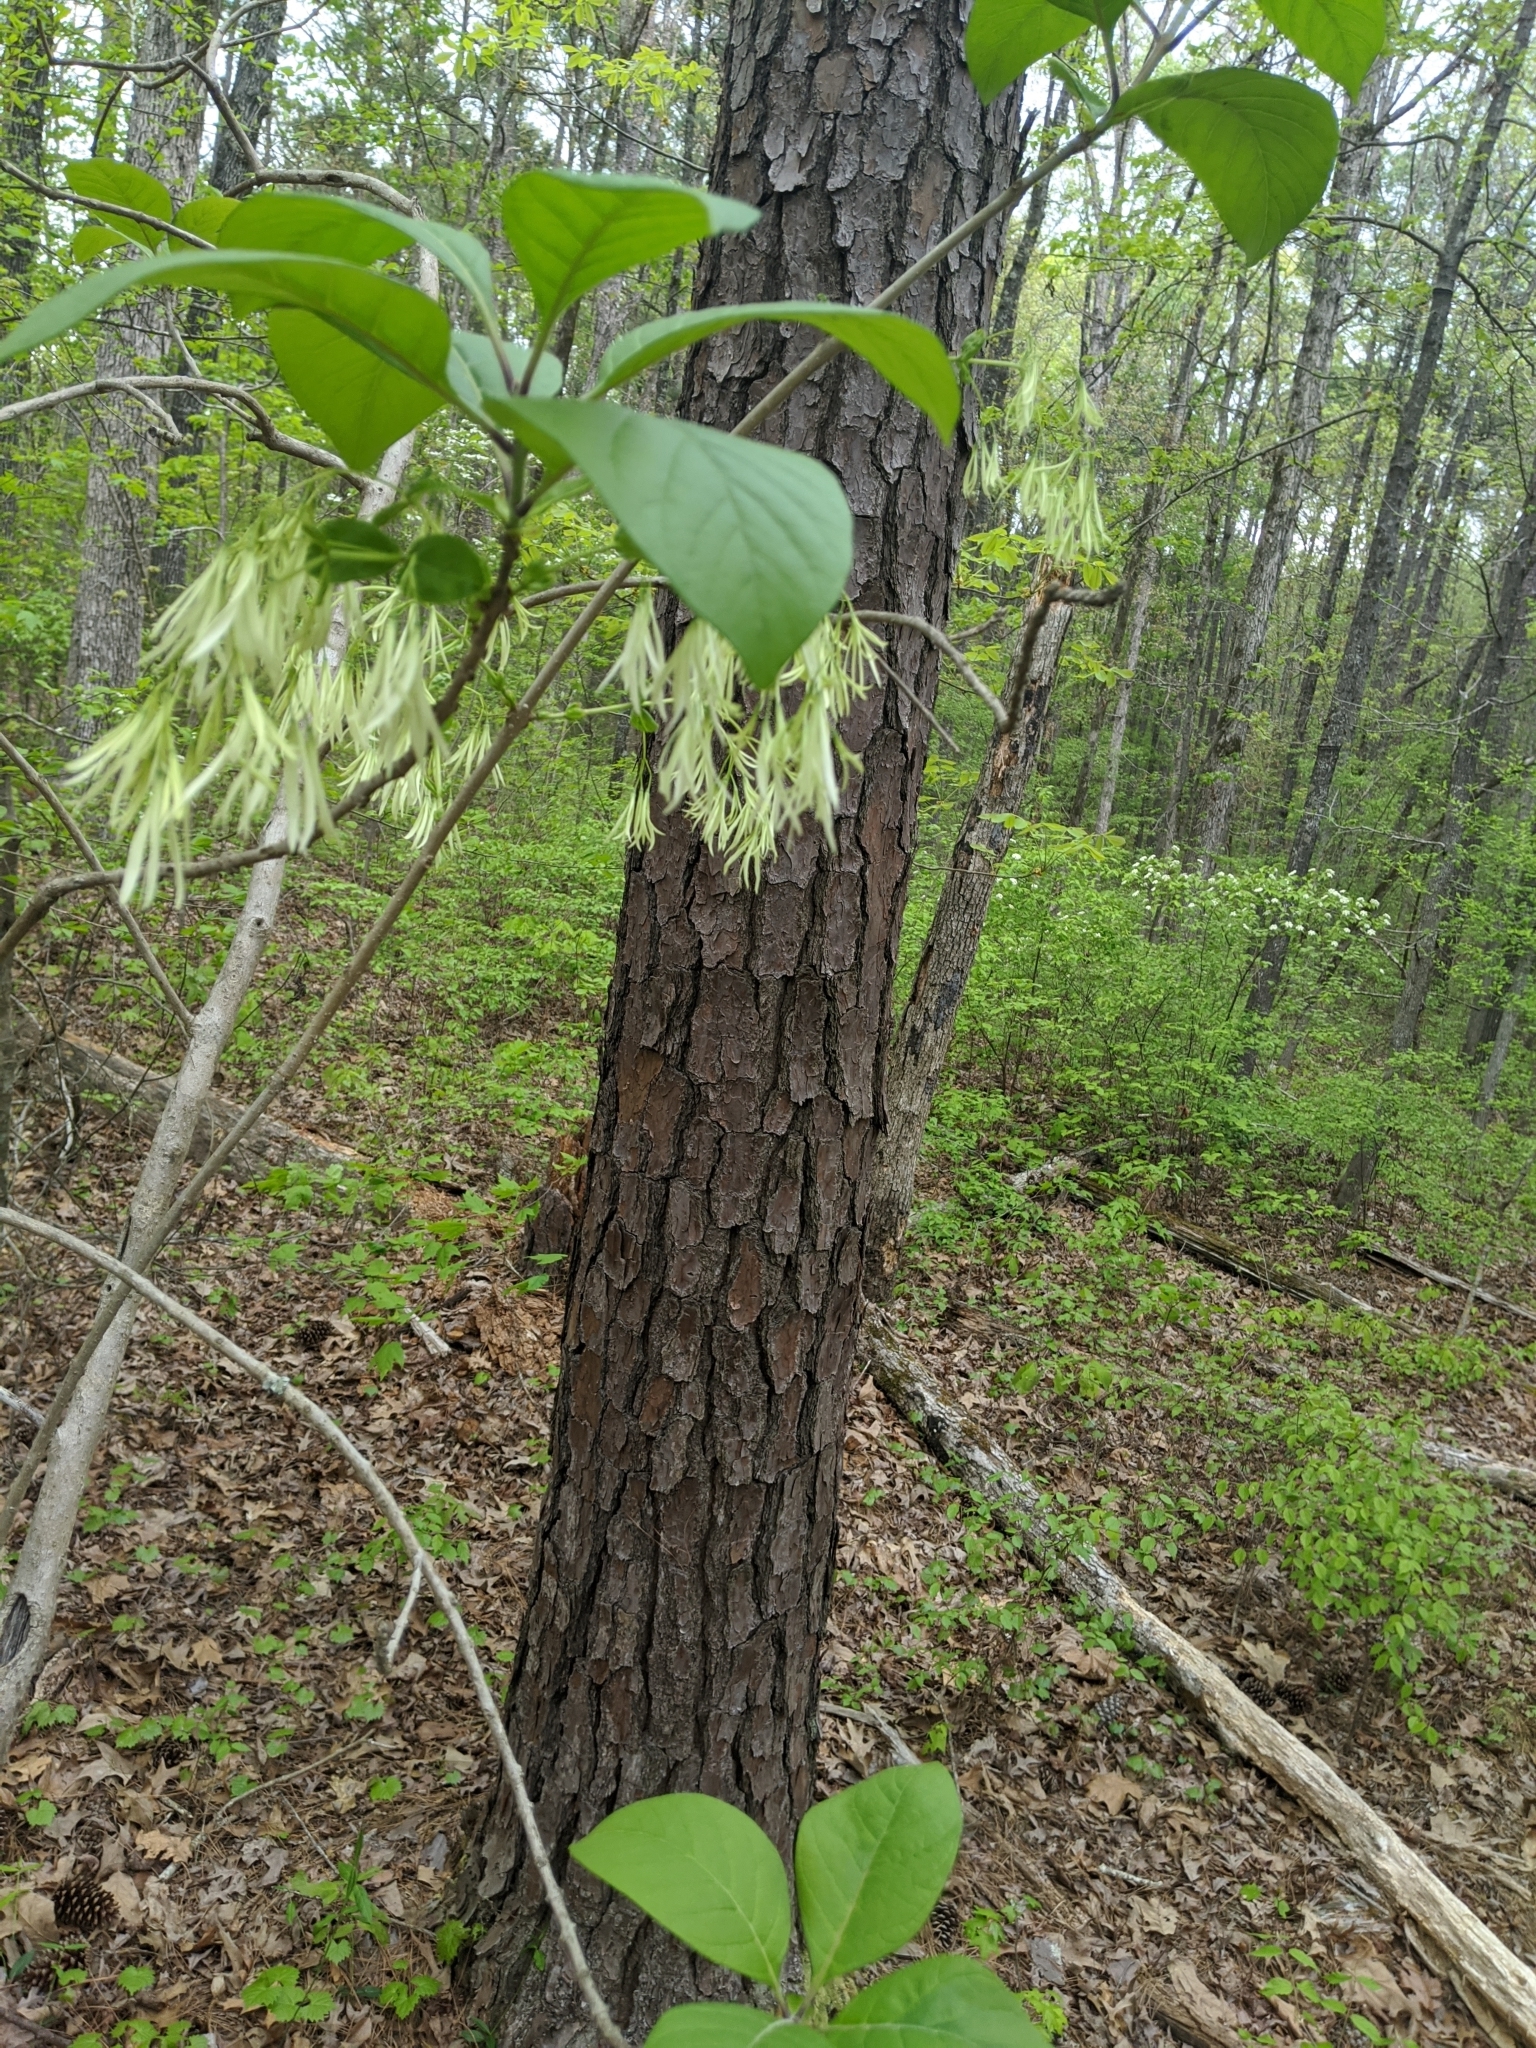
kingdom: Plantae
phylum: Tracheophyta
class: Magnoliopsida
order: Lamiales
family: Oleaceae
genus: Chionanthus
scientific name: Chionanthus virginicus
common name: American fringetree
